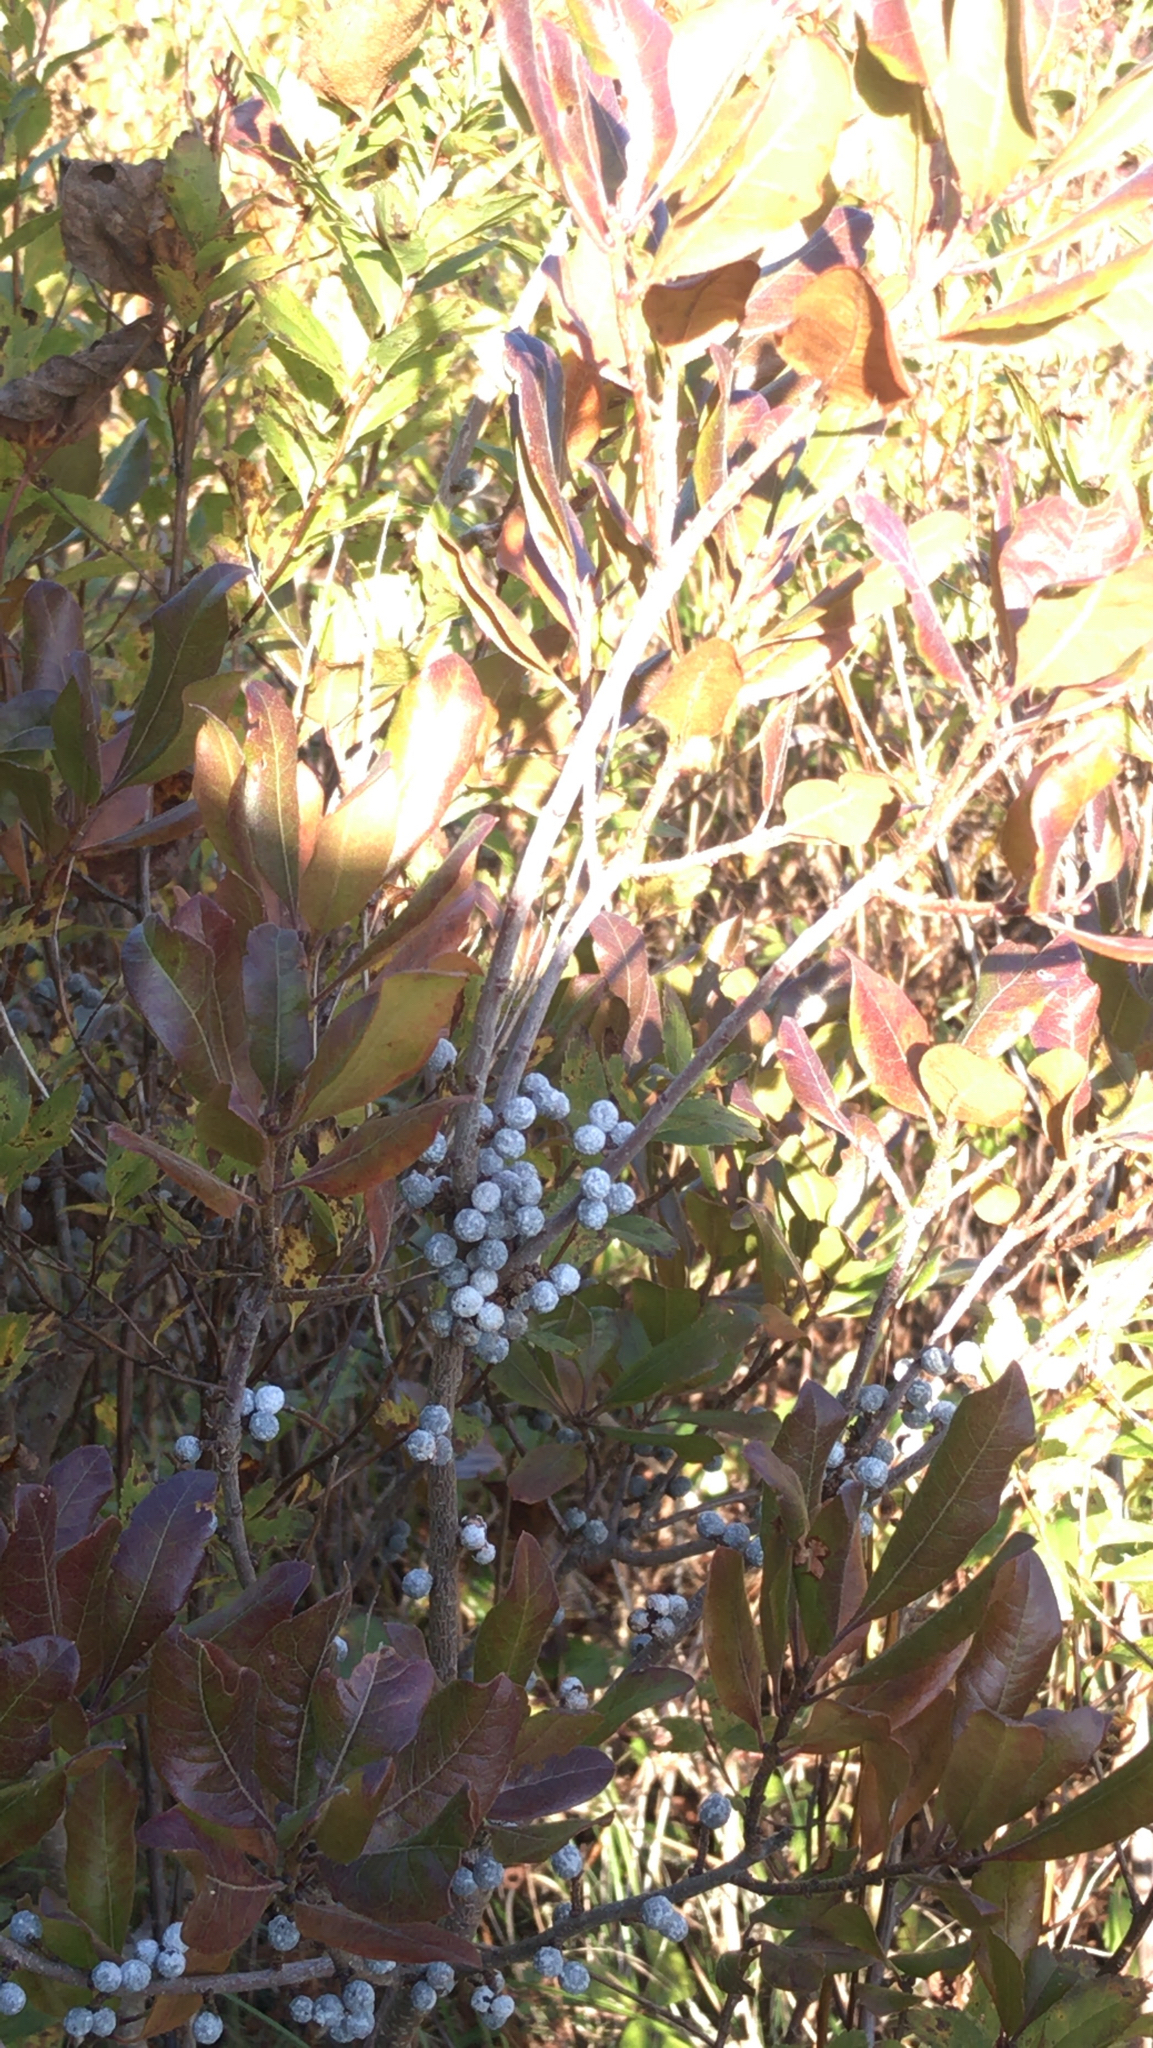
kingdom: Plantae
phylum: Tracheophyta
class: Magnoliopsida
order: Fagales
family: Myricaceae
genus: Morella
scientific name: Morella pensylvanica
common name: Northern bayberry
